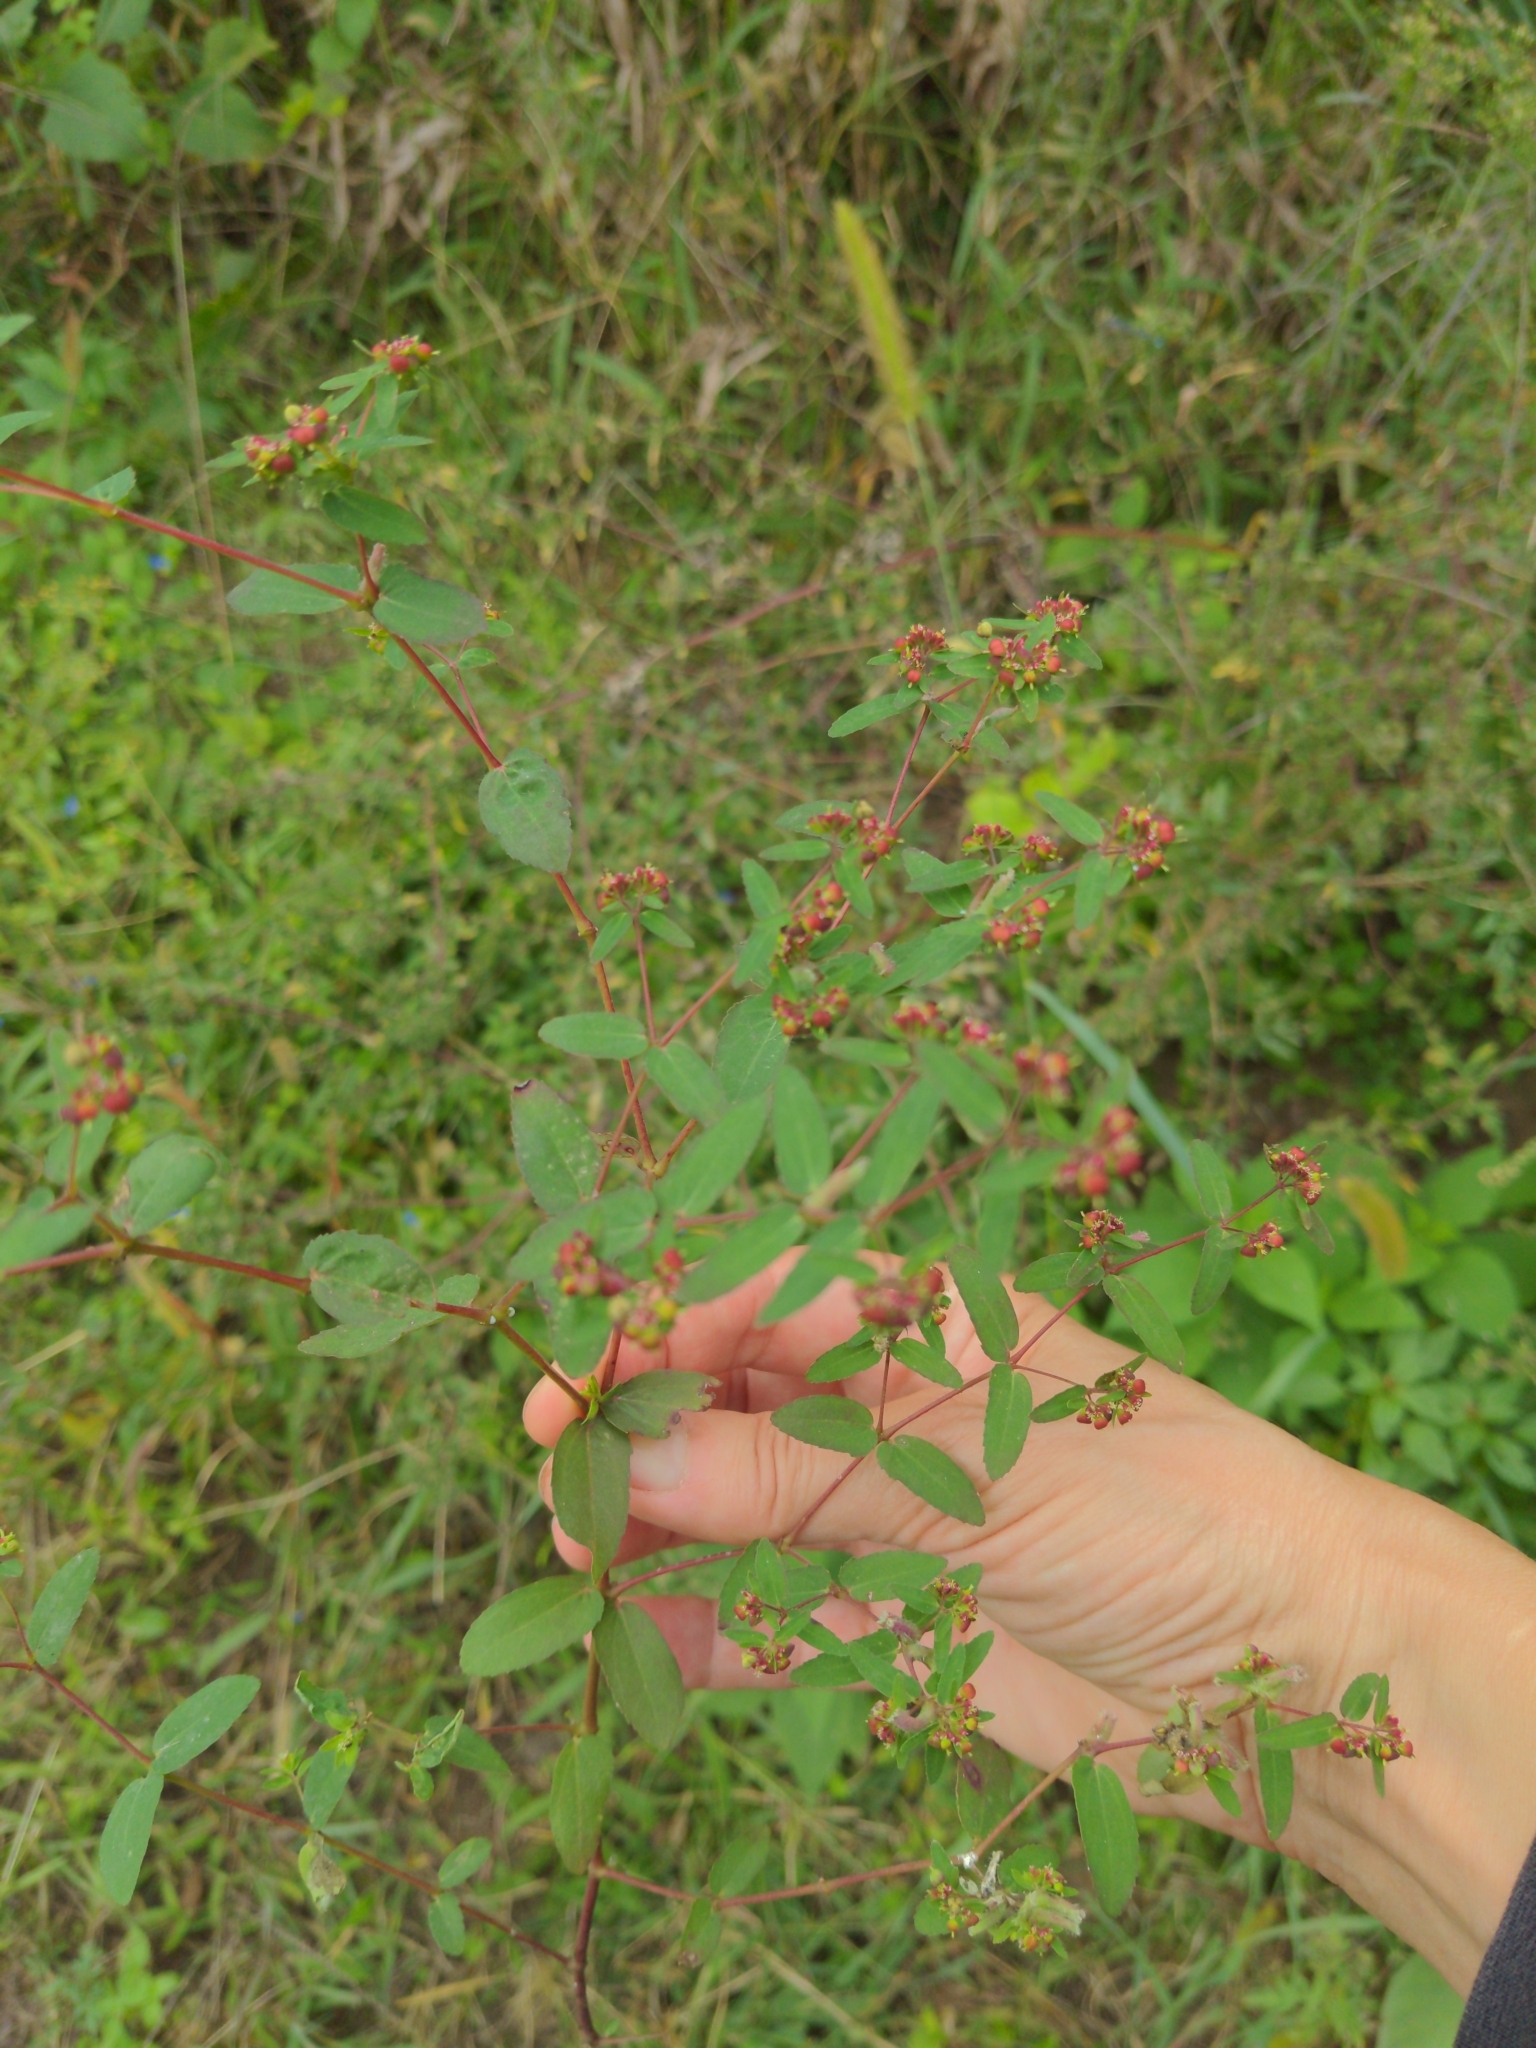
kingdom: Plantae
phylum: Tracheophyta
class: Magnoliopsida
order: Malpighiales
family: Euphorbiaceae
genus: Euphorbia
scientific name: Euphorbia nutans
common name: Eyebane
